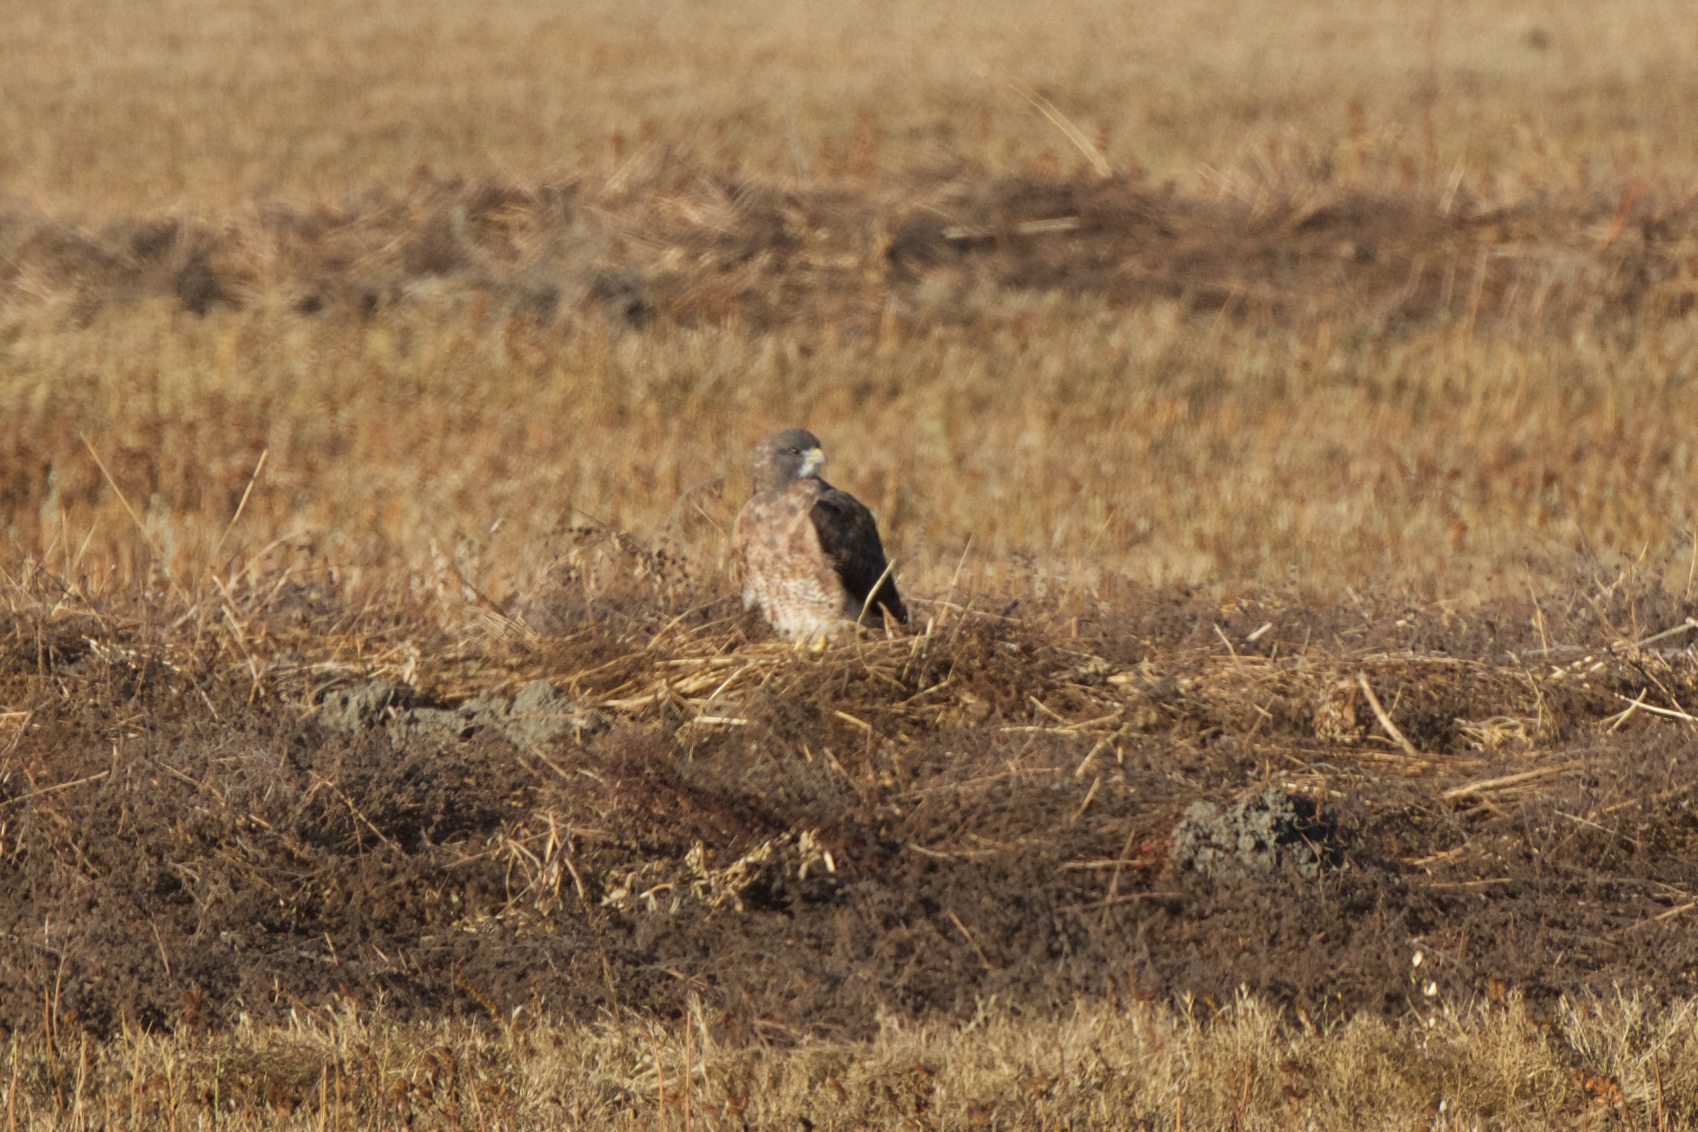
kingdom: Animalia
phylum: Chordata
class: Aves
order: Accipitriformes
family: Accipitridae
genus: Buteo
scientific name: Buteo swainsoni
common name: Swainson's hawk
